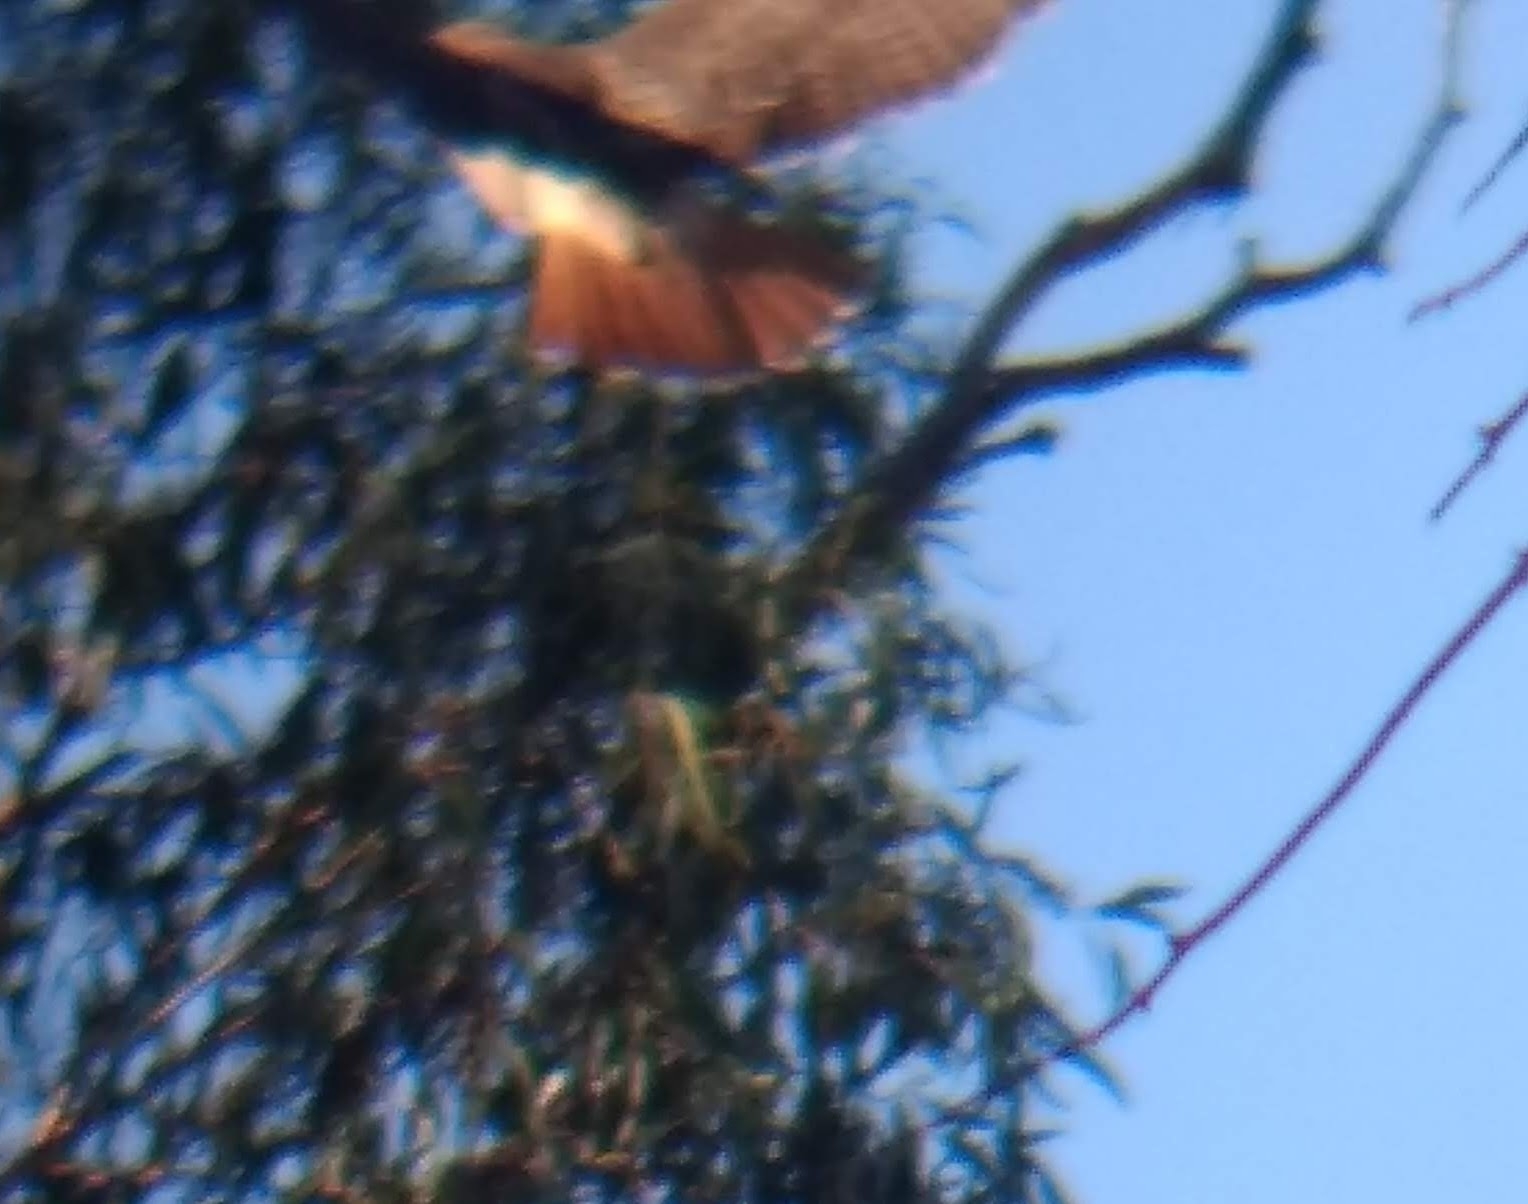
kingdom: Animalia
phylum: Chordata
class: Aves
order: Accipitriformes
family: Accipitridae
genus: Buteo
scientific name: Buteo jamaicensis
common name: Red-tailed hawk
